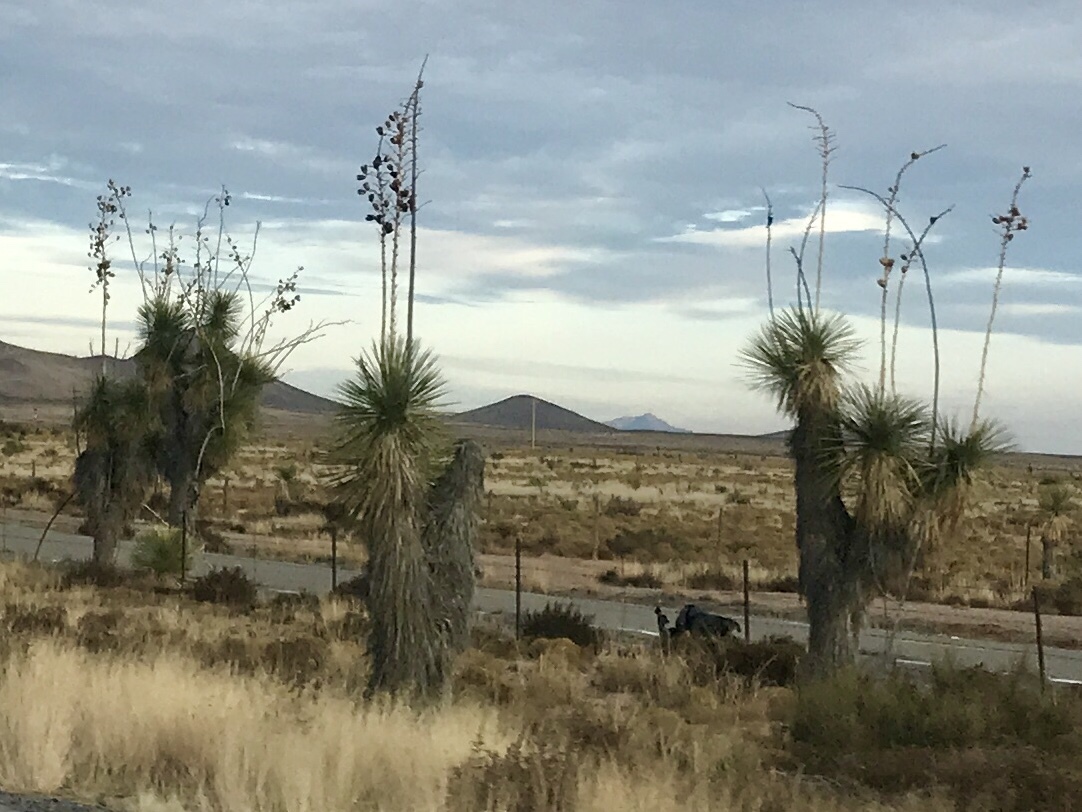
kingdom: Plantae
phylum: Tracheophyta
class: Liliopsida
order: Asparagales
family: Asparagaceae
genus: Yucca
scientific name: Yucca elata
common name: Palmella
